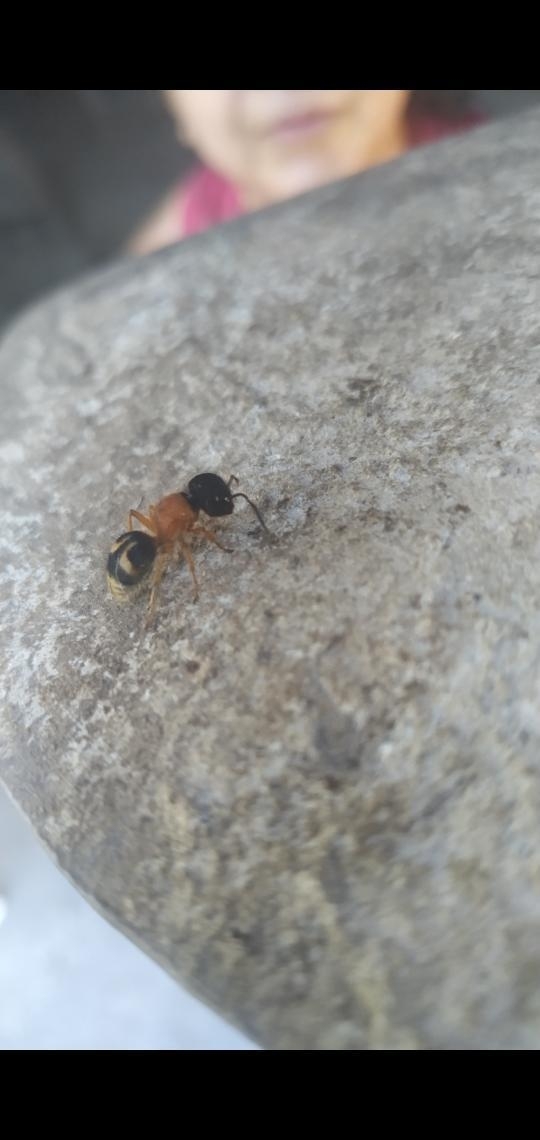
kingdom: Animalia
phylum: Arthropoda
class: Insecta
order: Hymenoptera
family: Mutillidae
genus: Pseudomethoca
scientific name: Pseudomethoca
